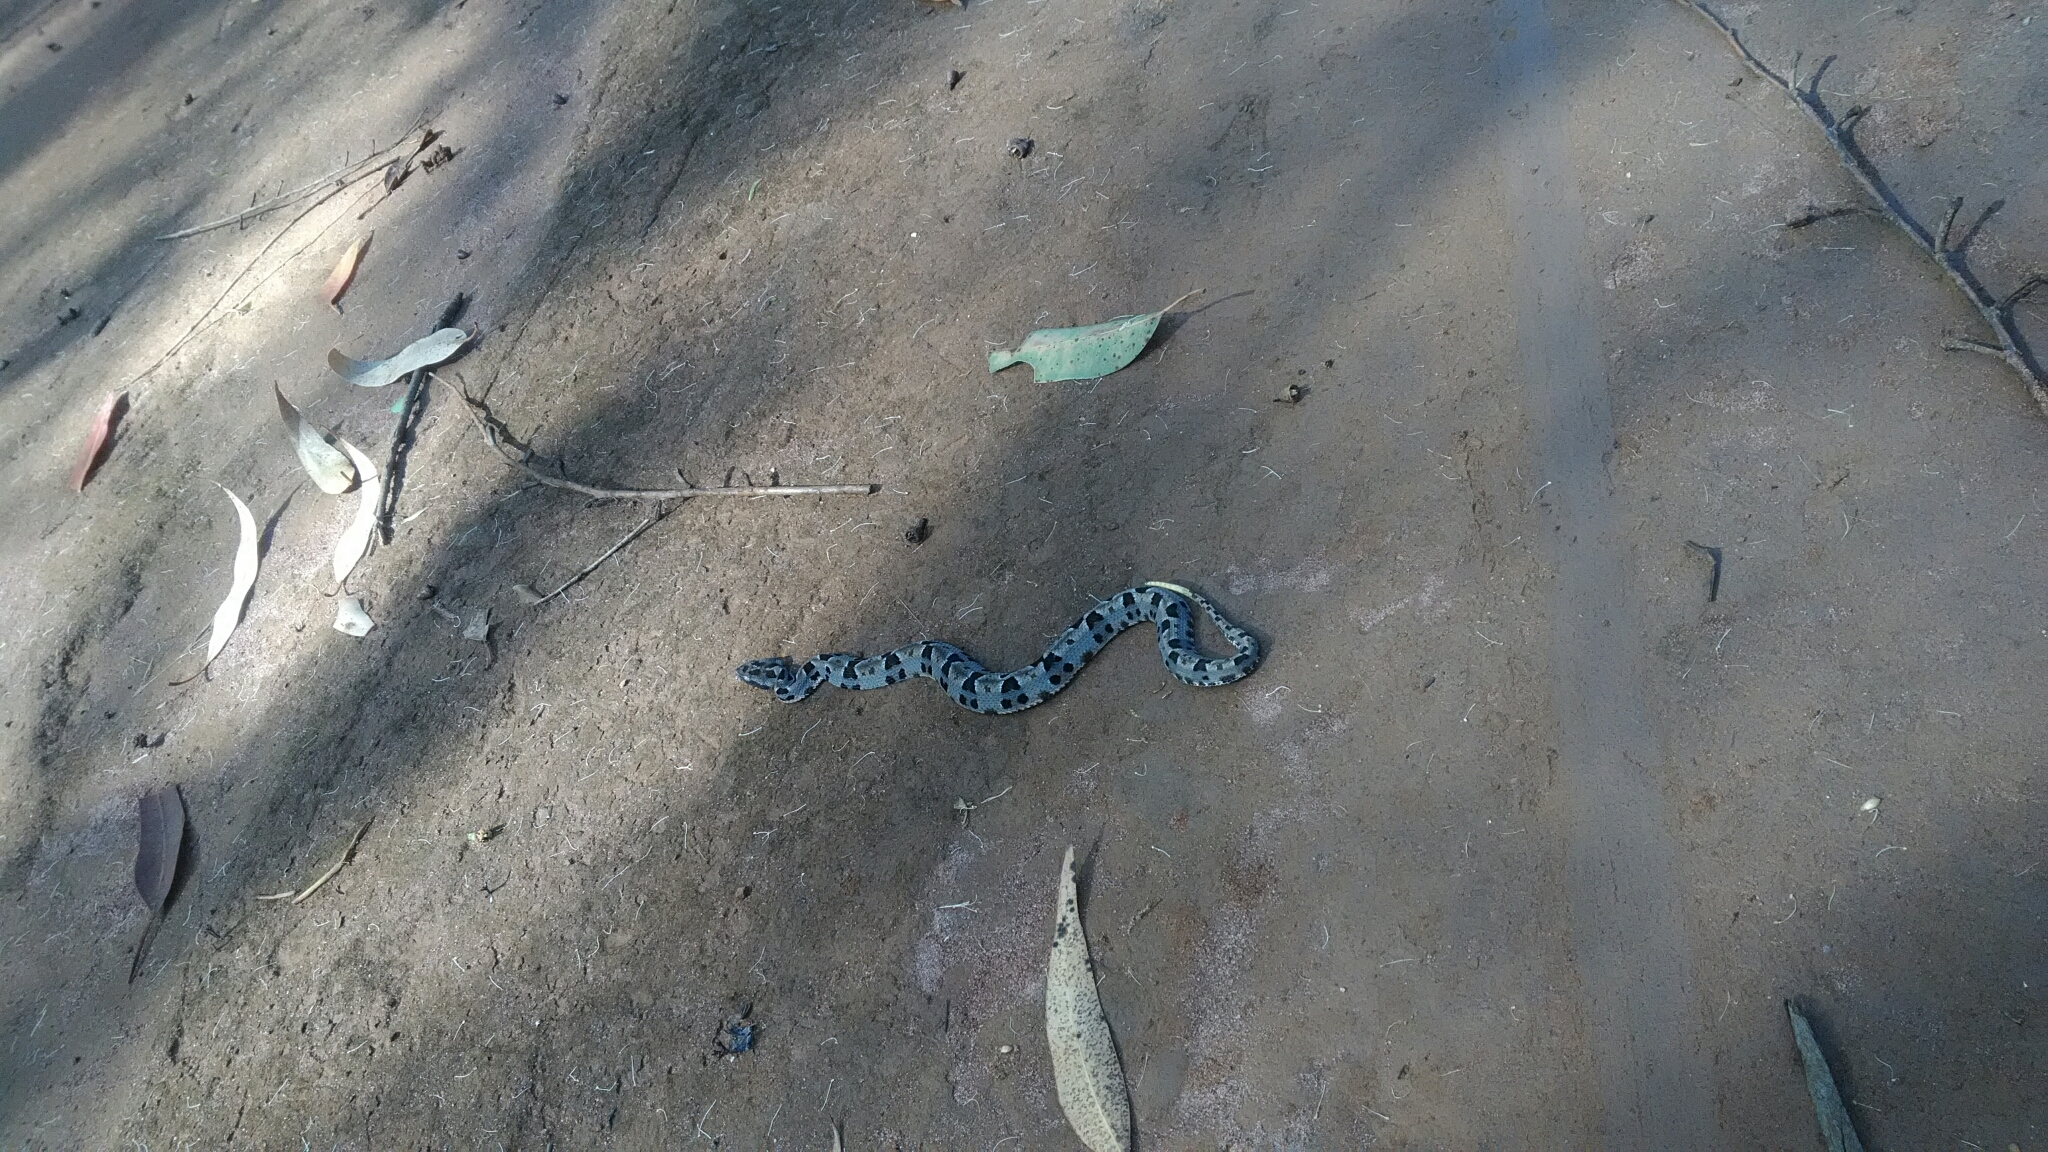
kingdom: Animalia
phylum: Chordata
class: Squamata
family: Viperidae
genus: Bothrops
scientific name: Bothrops pauloensis
